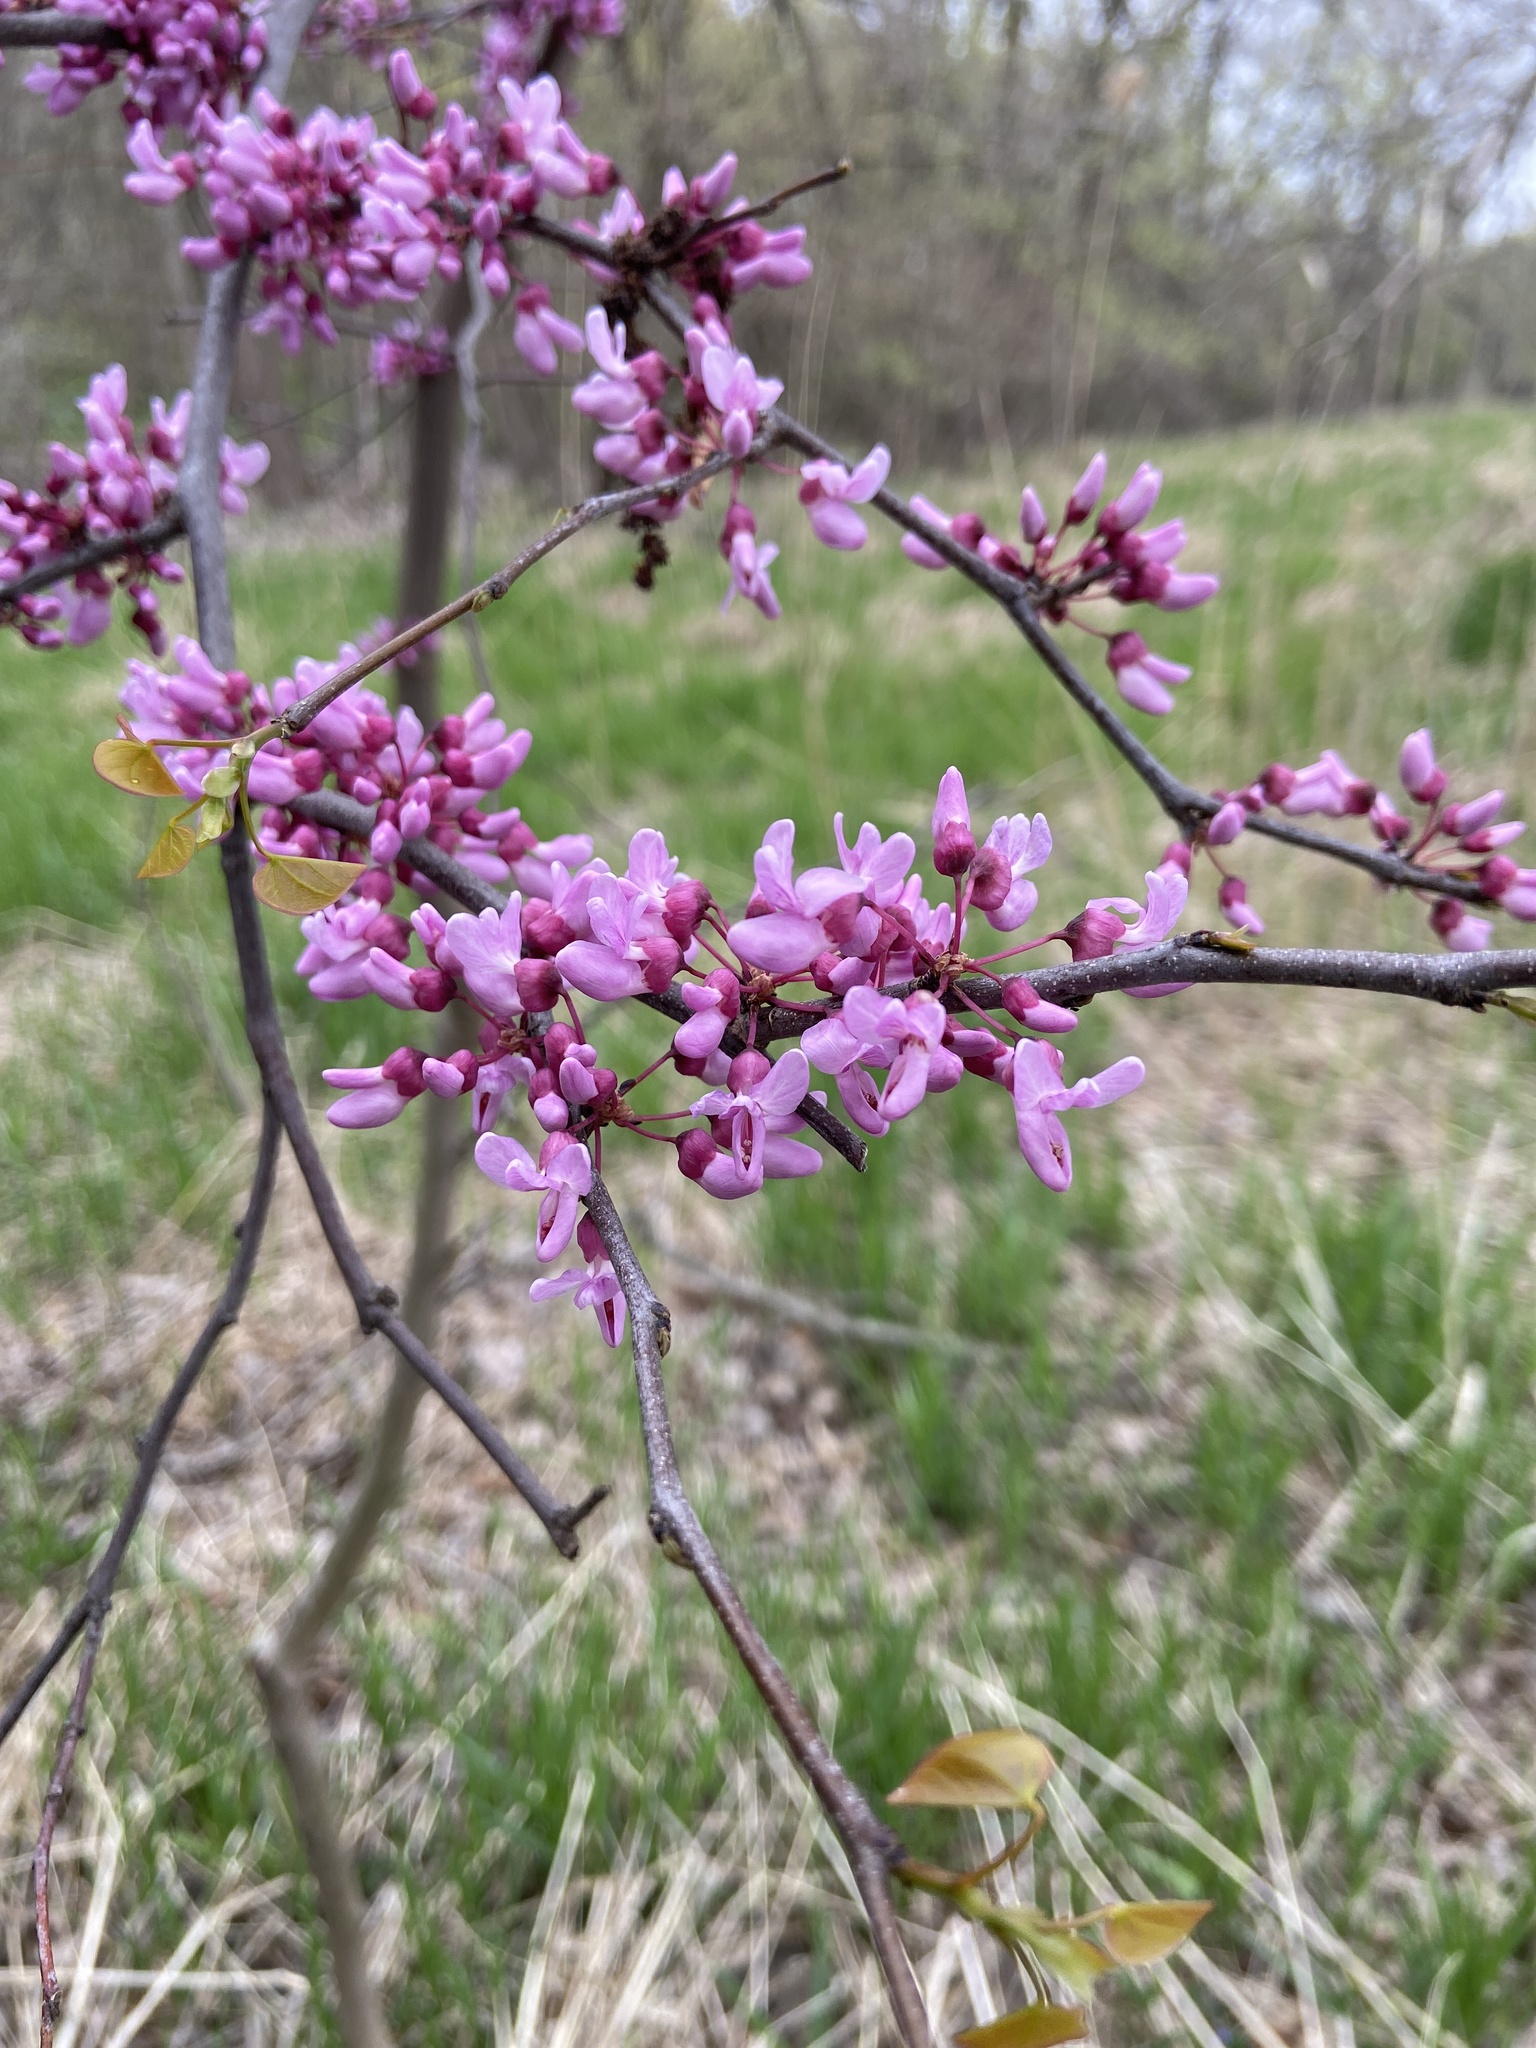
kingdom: Plantae
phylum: Tracheophyta
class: Magnoliopsida
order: Fabales
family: Fabaceae
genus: Cercis
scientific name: Cercis canadensis
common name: Eastern redbud
